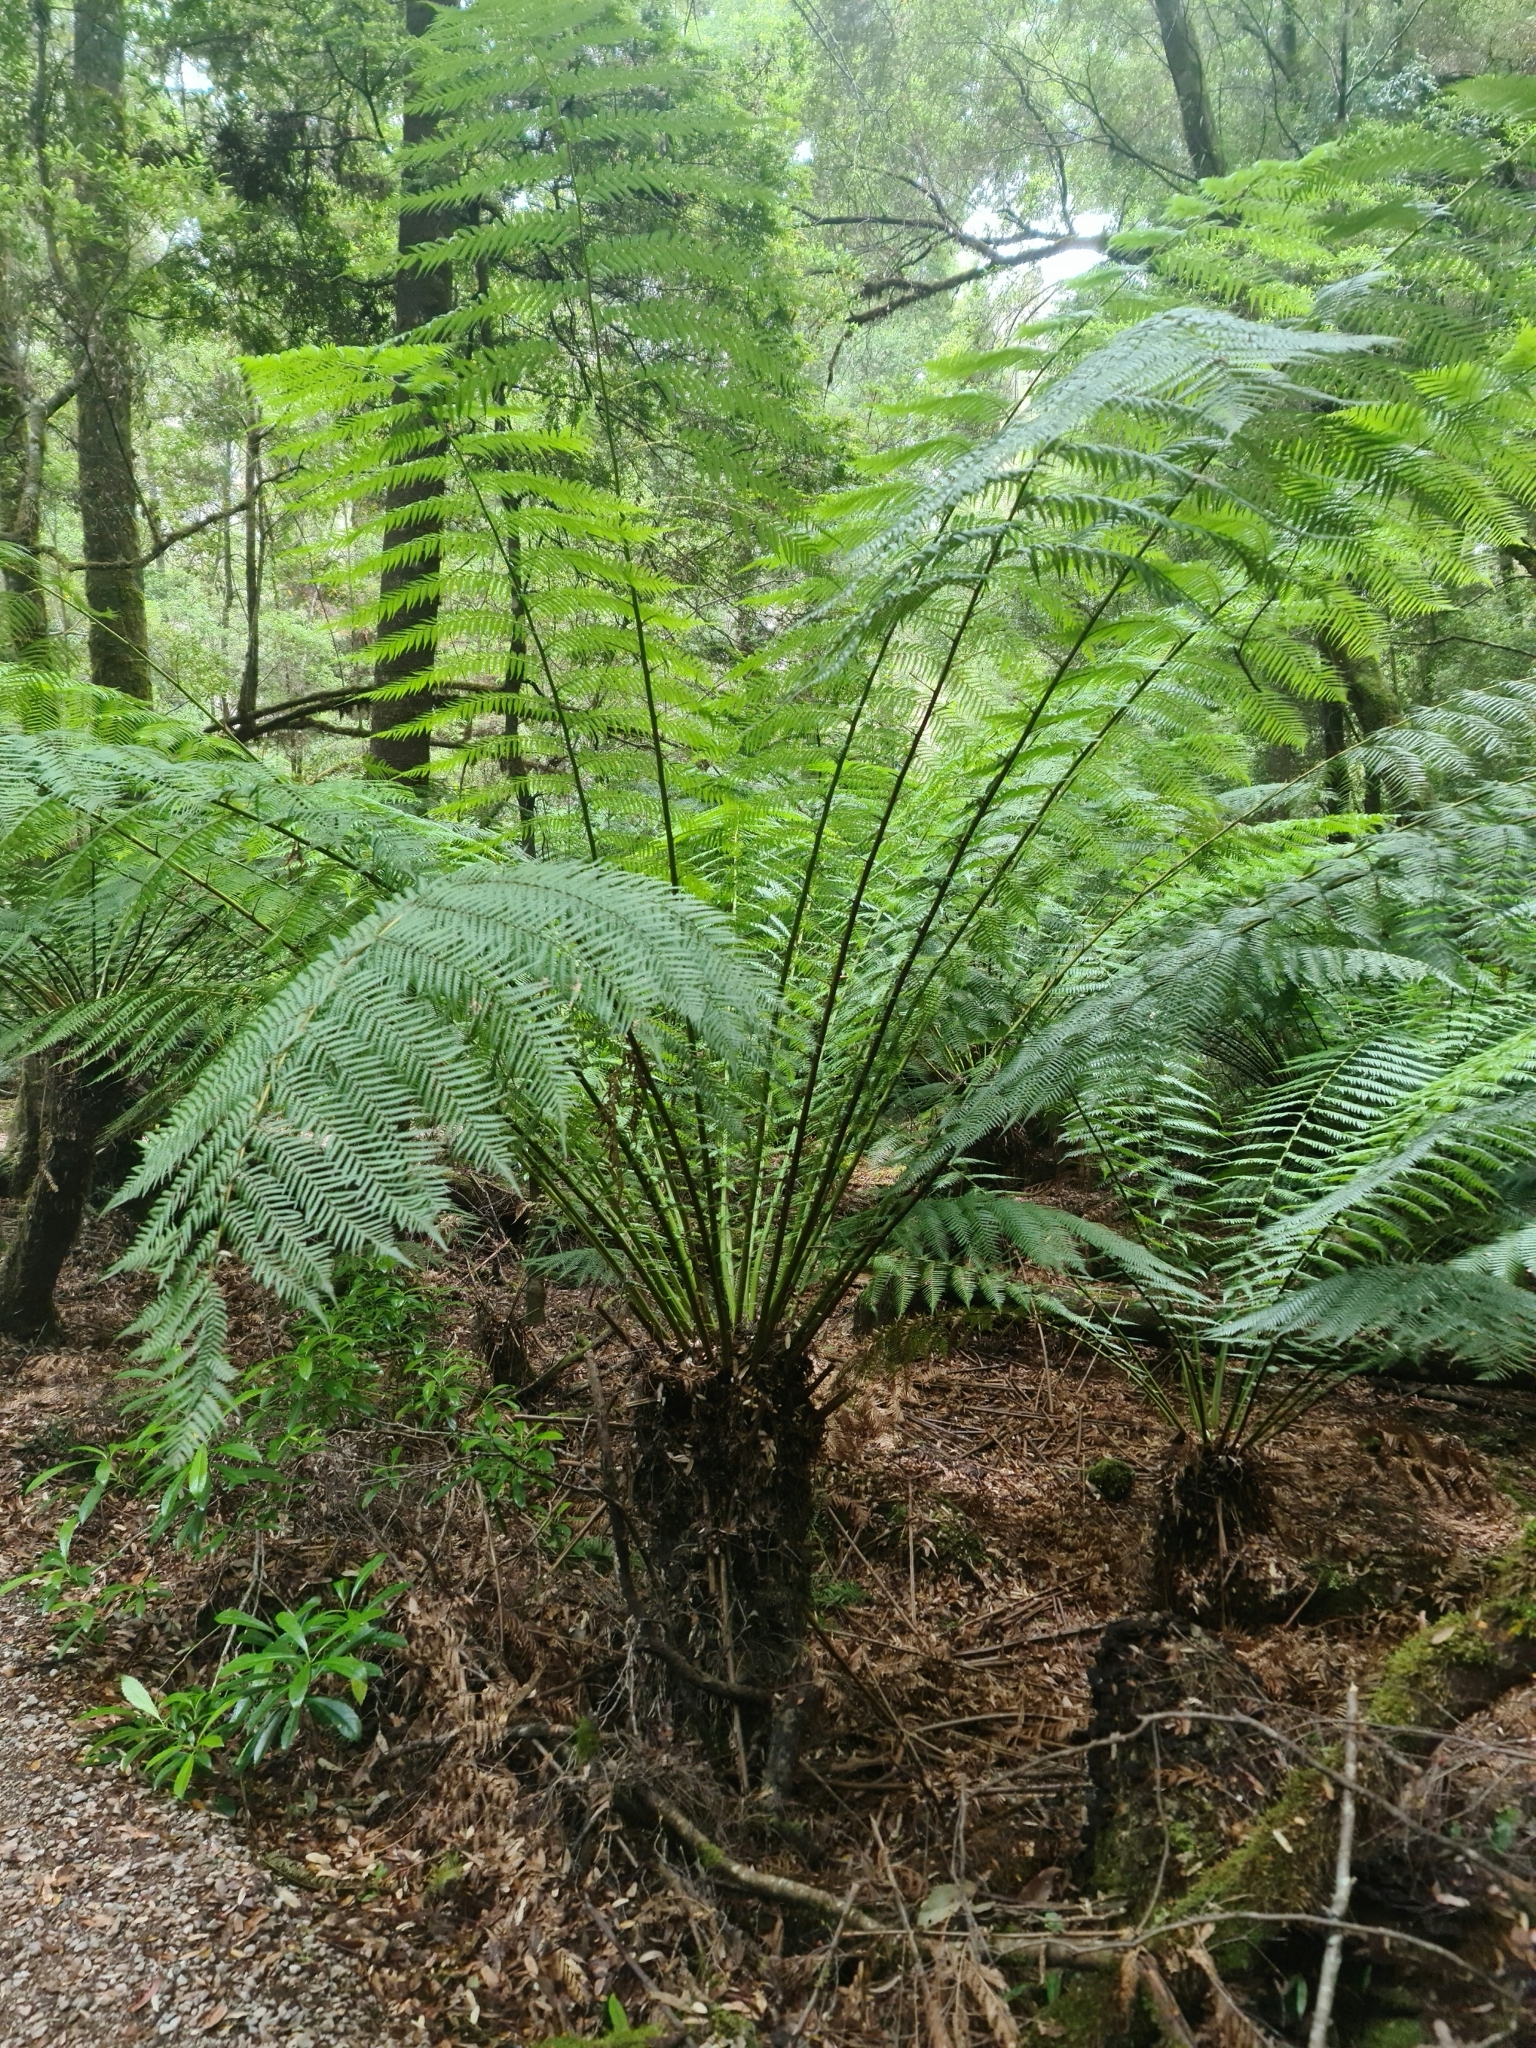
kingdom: Plantae
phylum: Tracheophyta
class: Polypodiopsida
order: Cyatheales
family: Dicksoniaceae
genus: Dicksonia
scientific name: Dicksonia antarctica
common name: Australian treefern
